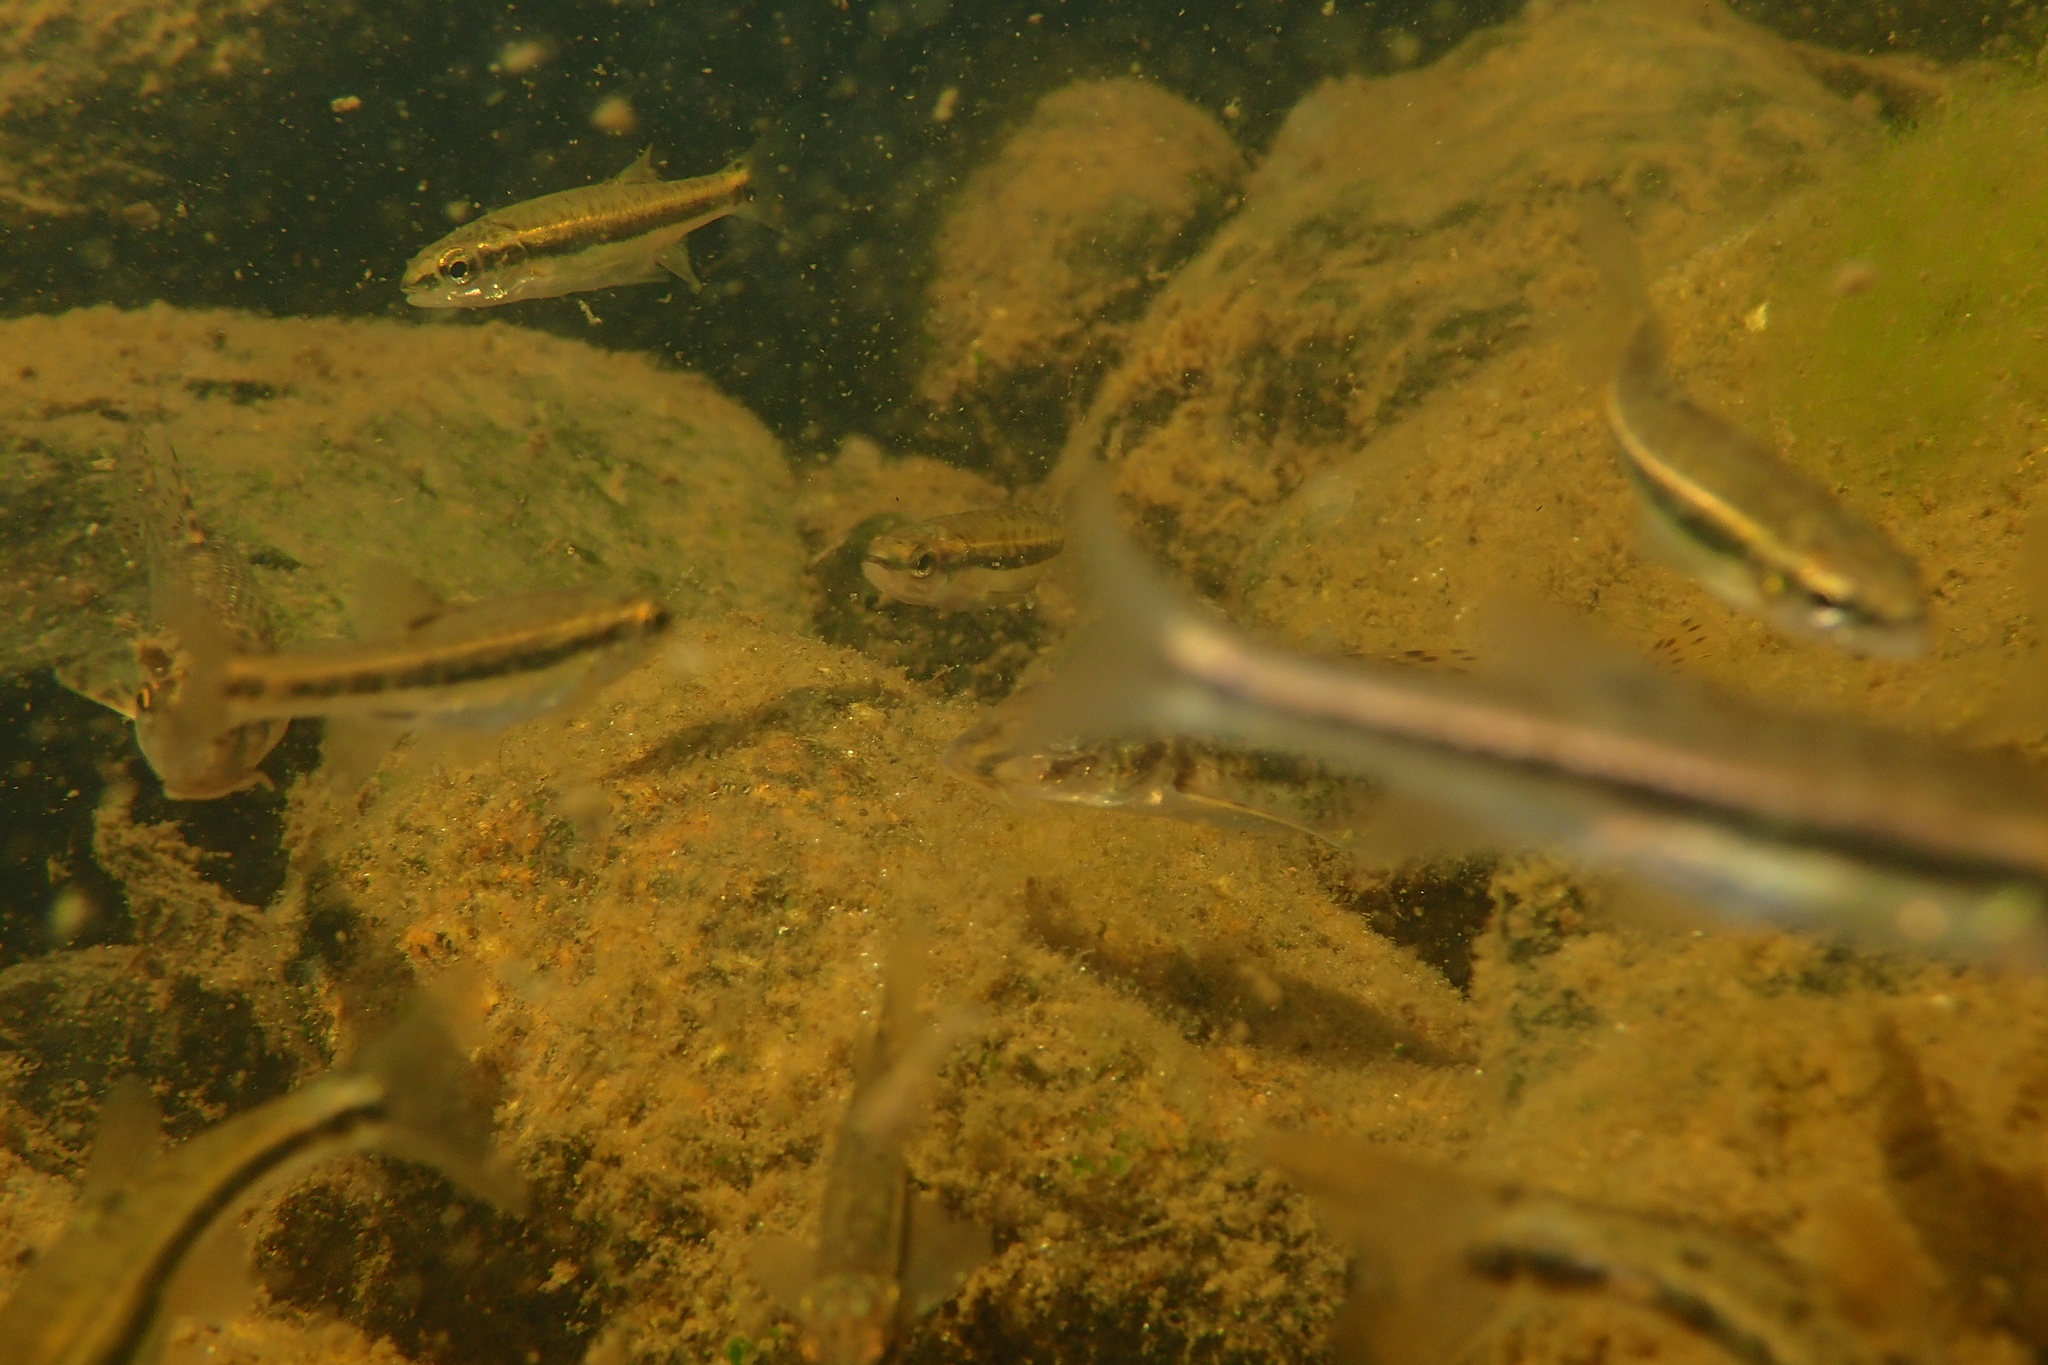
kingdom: Animalia
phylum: Chordata
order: Cypriniformes
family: Cyprinidae
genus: Phoxinus
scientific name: Phoxinus dragarum
